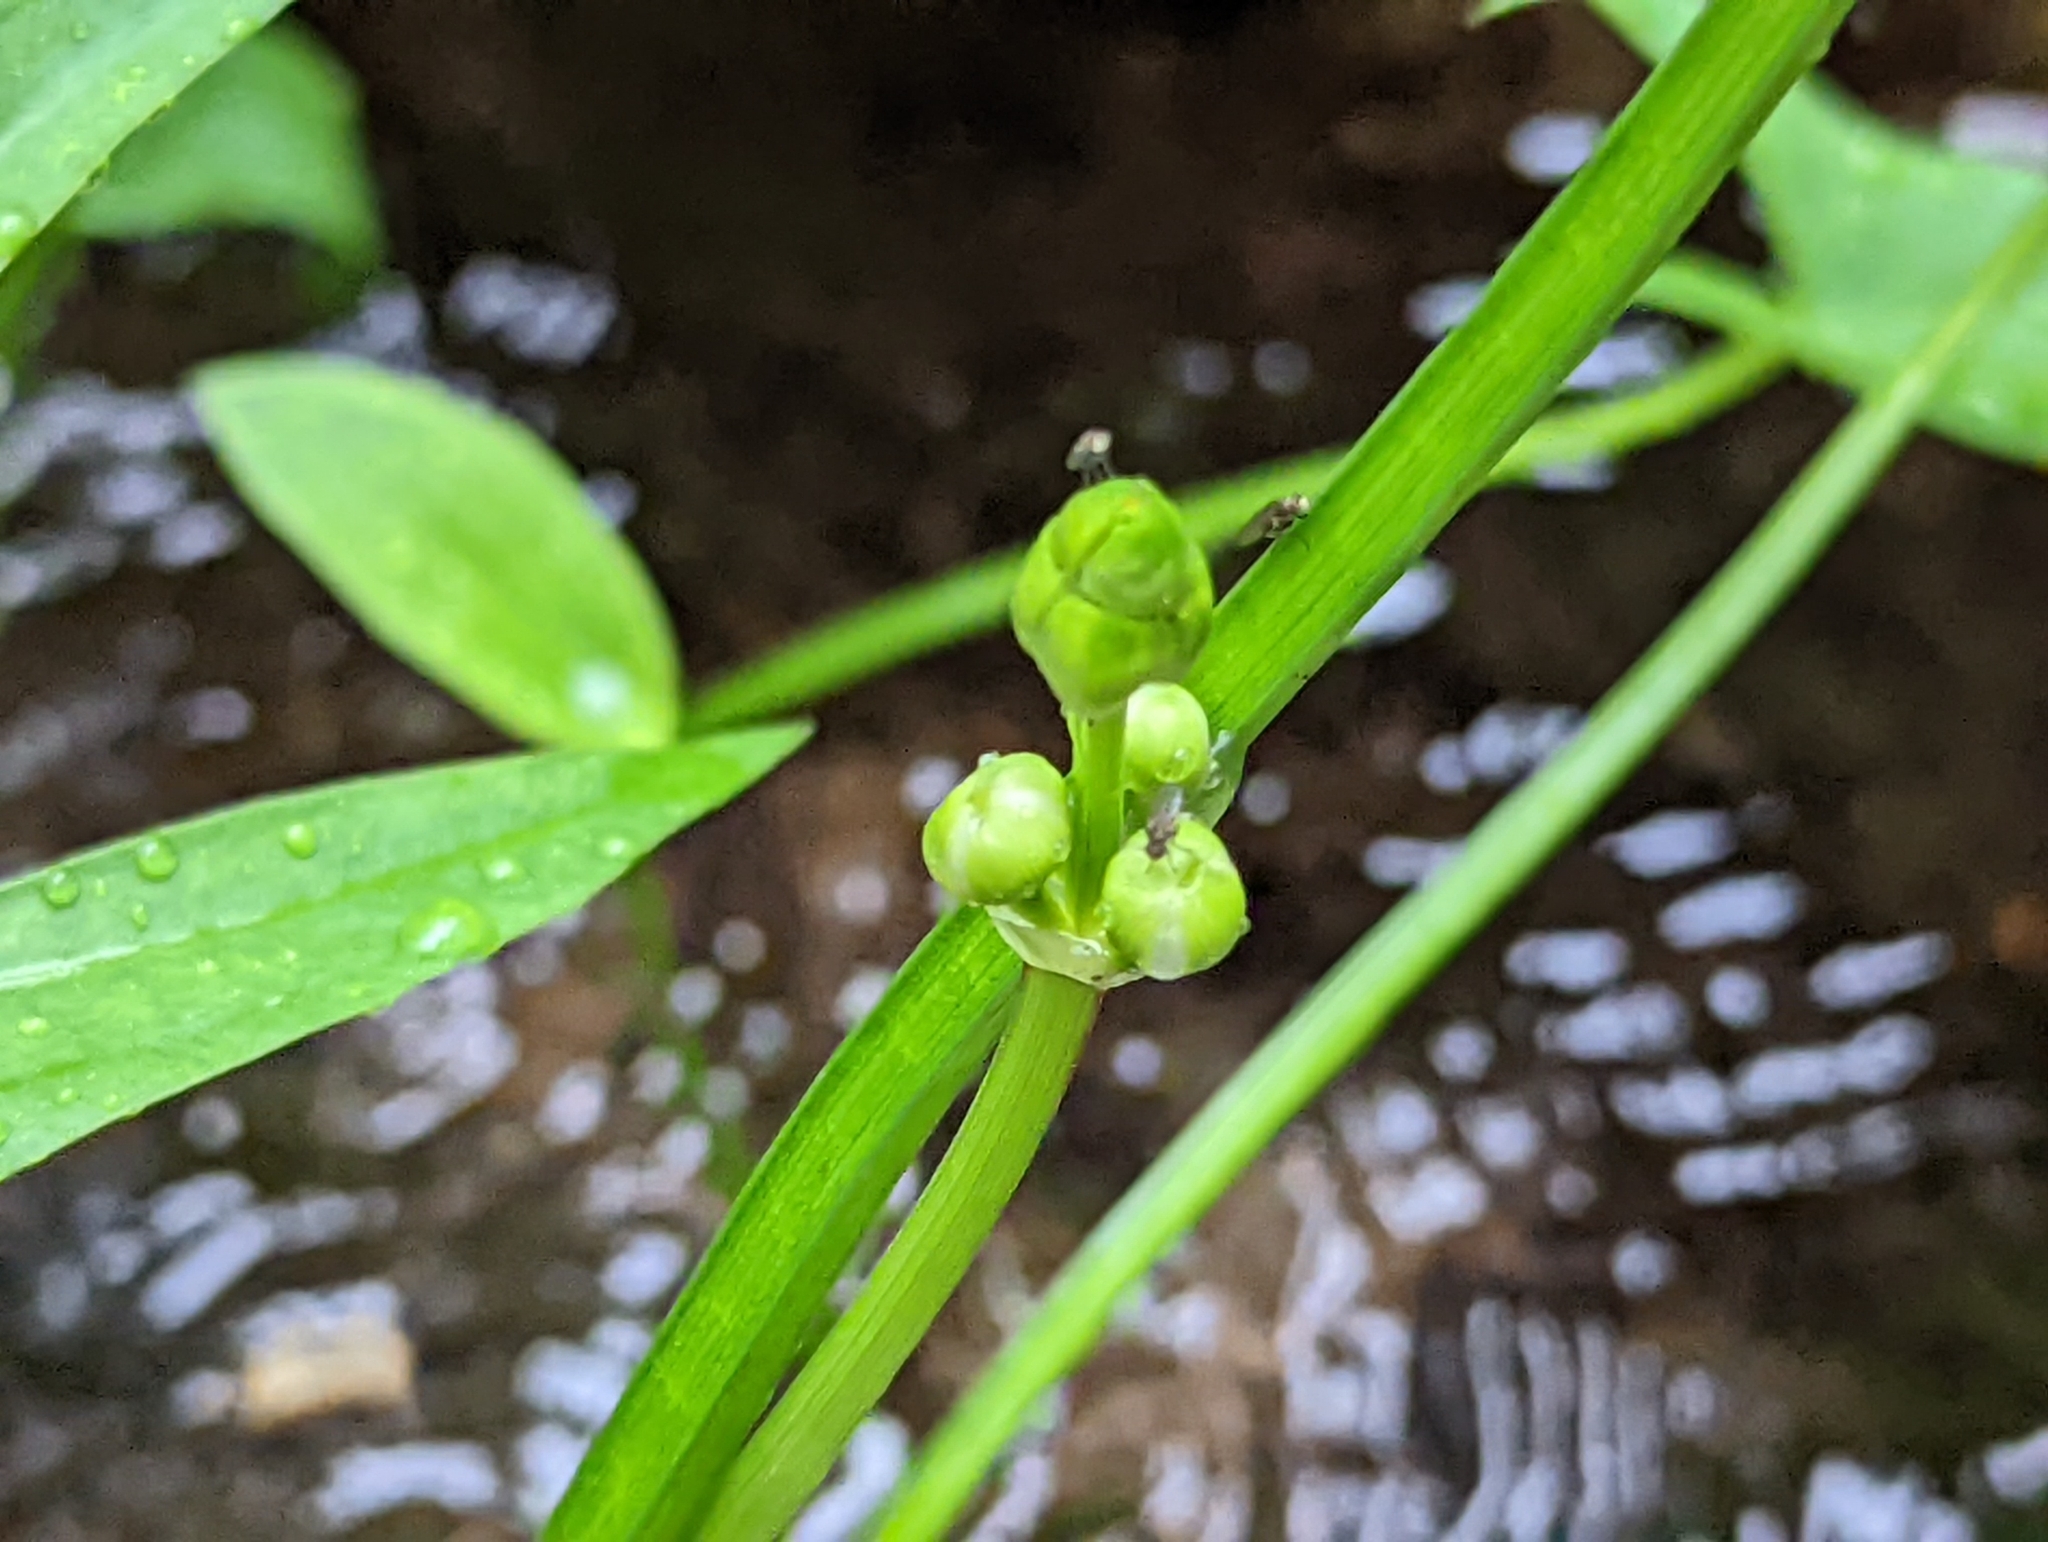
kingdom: Plantae
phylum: Tracheophyta
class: Liliopsida
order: Alismatales
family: Alismataceae
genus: Sagittaria
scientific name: Sagittaria latifolia
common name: Duck-potato
